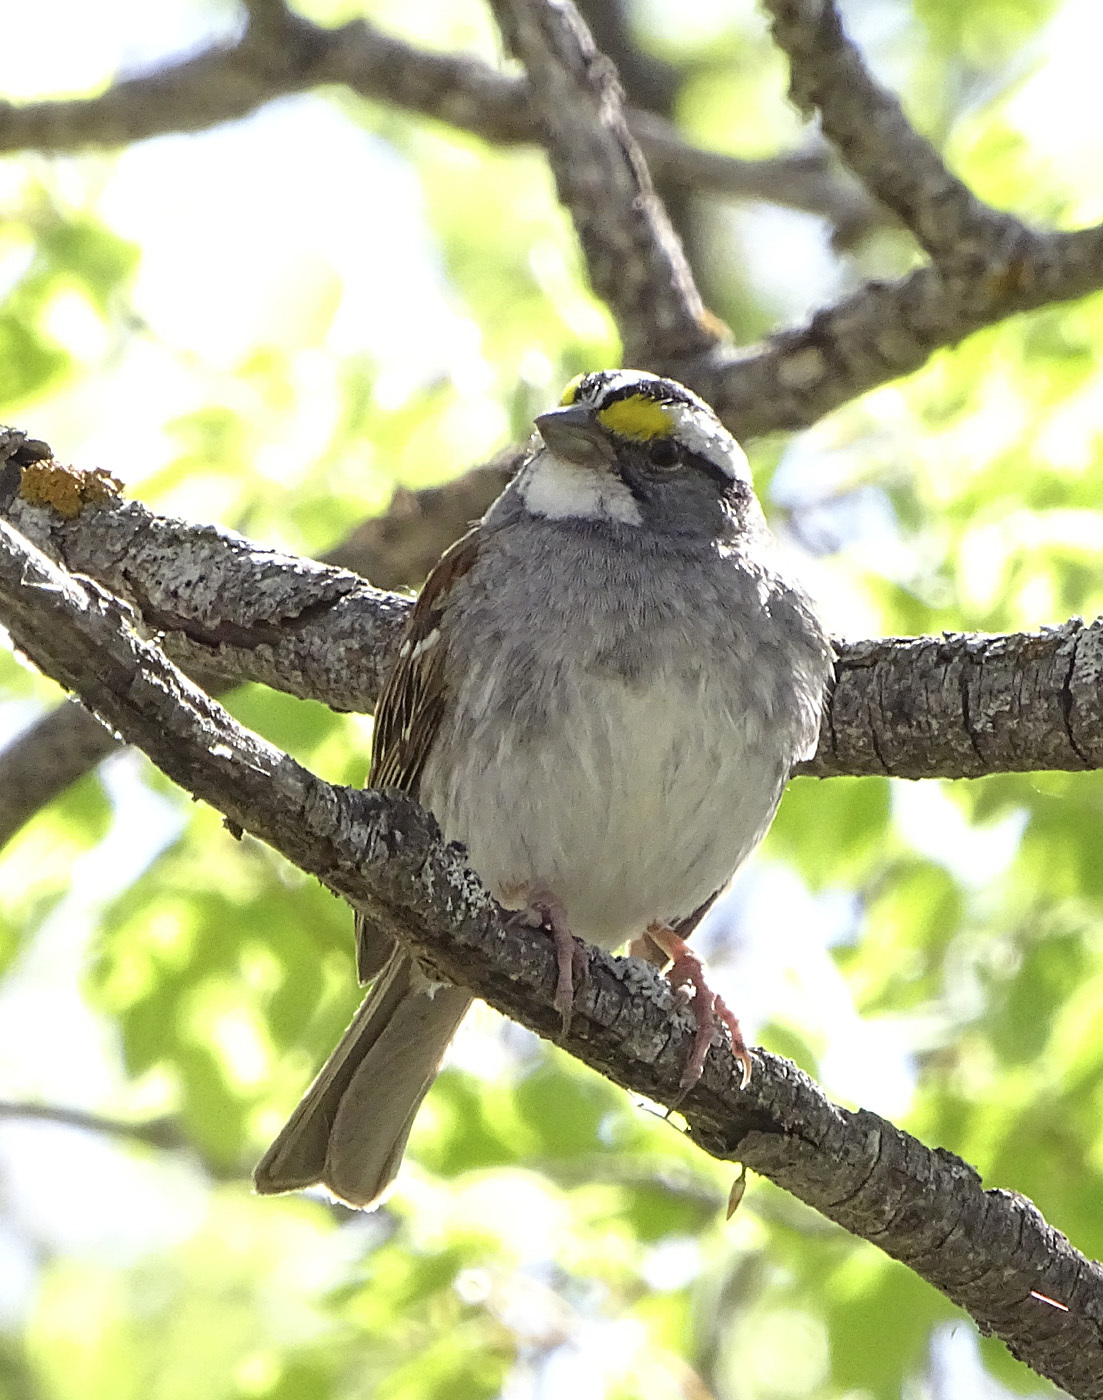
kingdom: Animalia
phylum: Chordata
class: Aves
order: Passeriformes
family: Passerellidae
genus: Zonotrichia
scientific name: Zonotrichia albicollis
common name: White-throated sparrow
